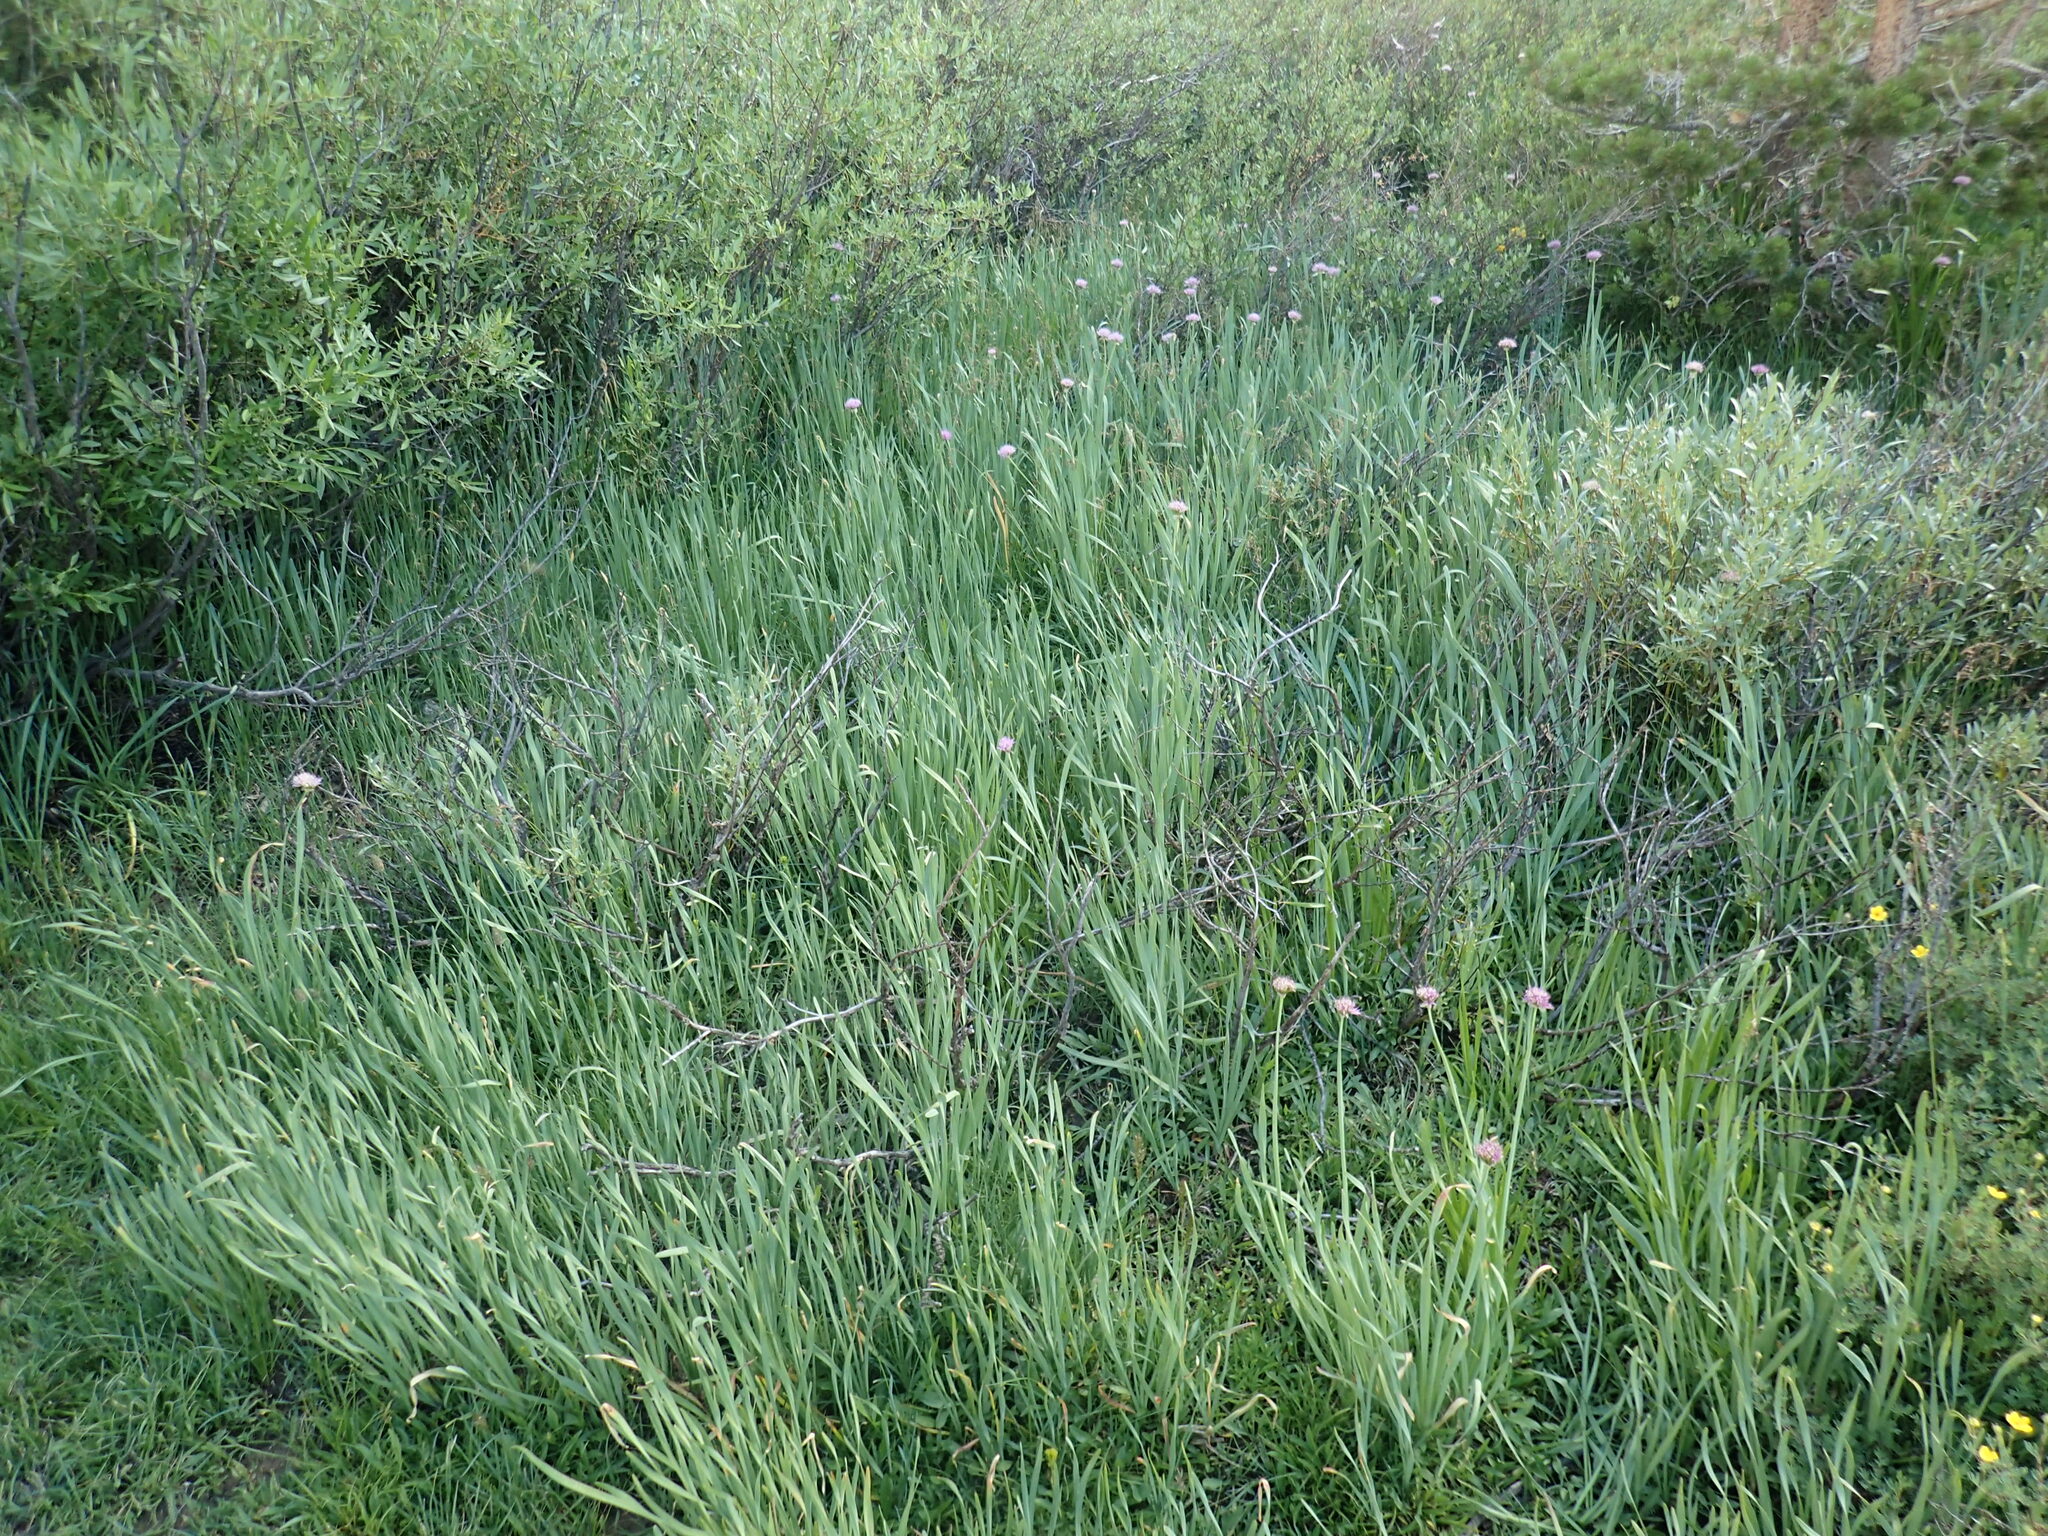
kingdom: Plantae
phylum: Tracheophyta
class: Liliopsida
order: Asparagales
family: Amaryllidaceae
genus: Allium
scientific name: Allium validum
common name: Pacific mountain onion
